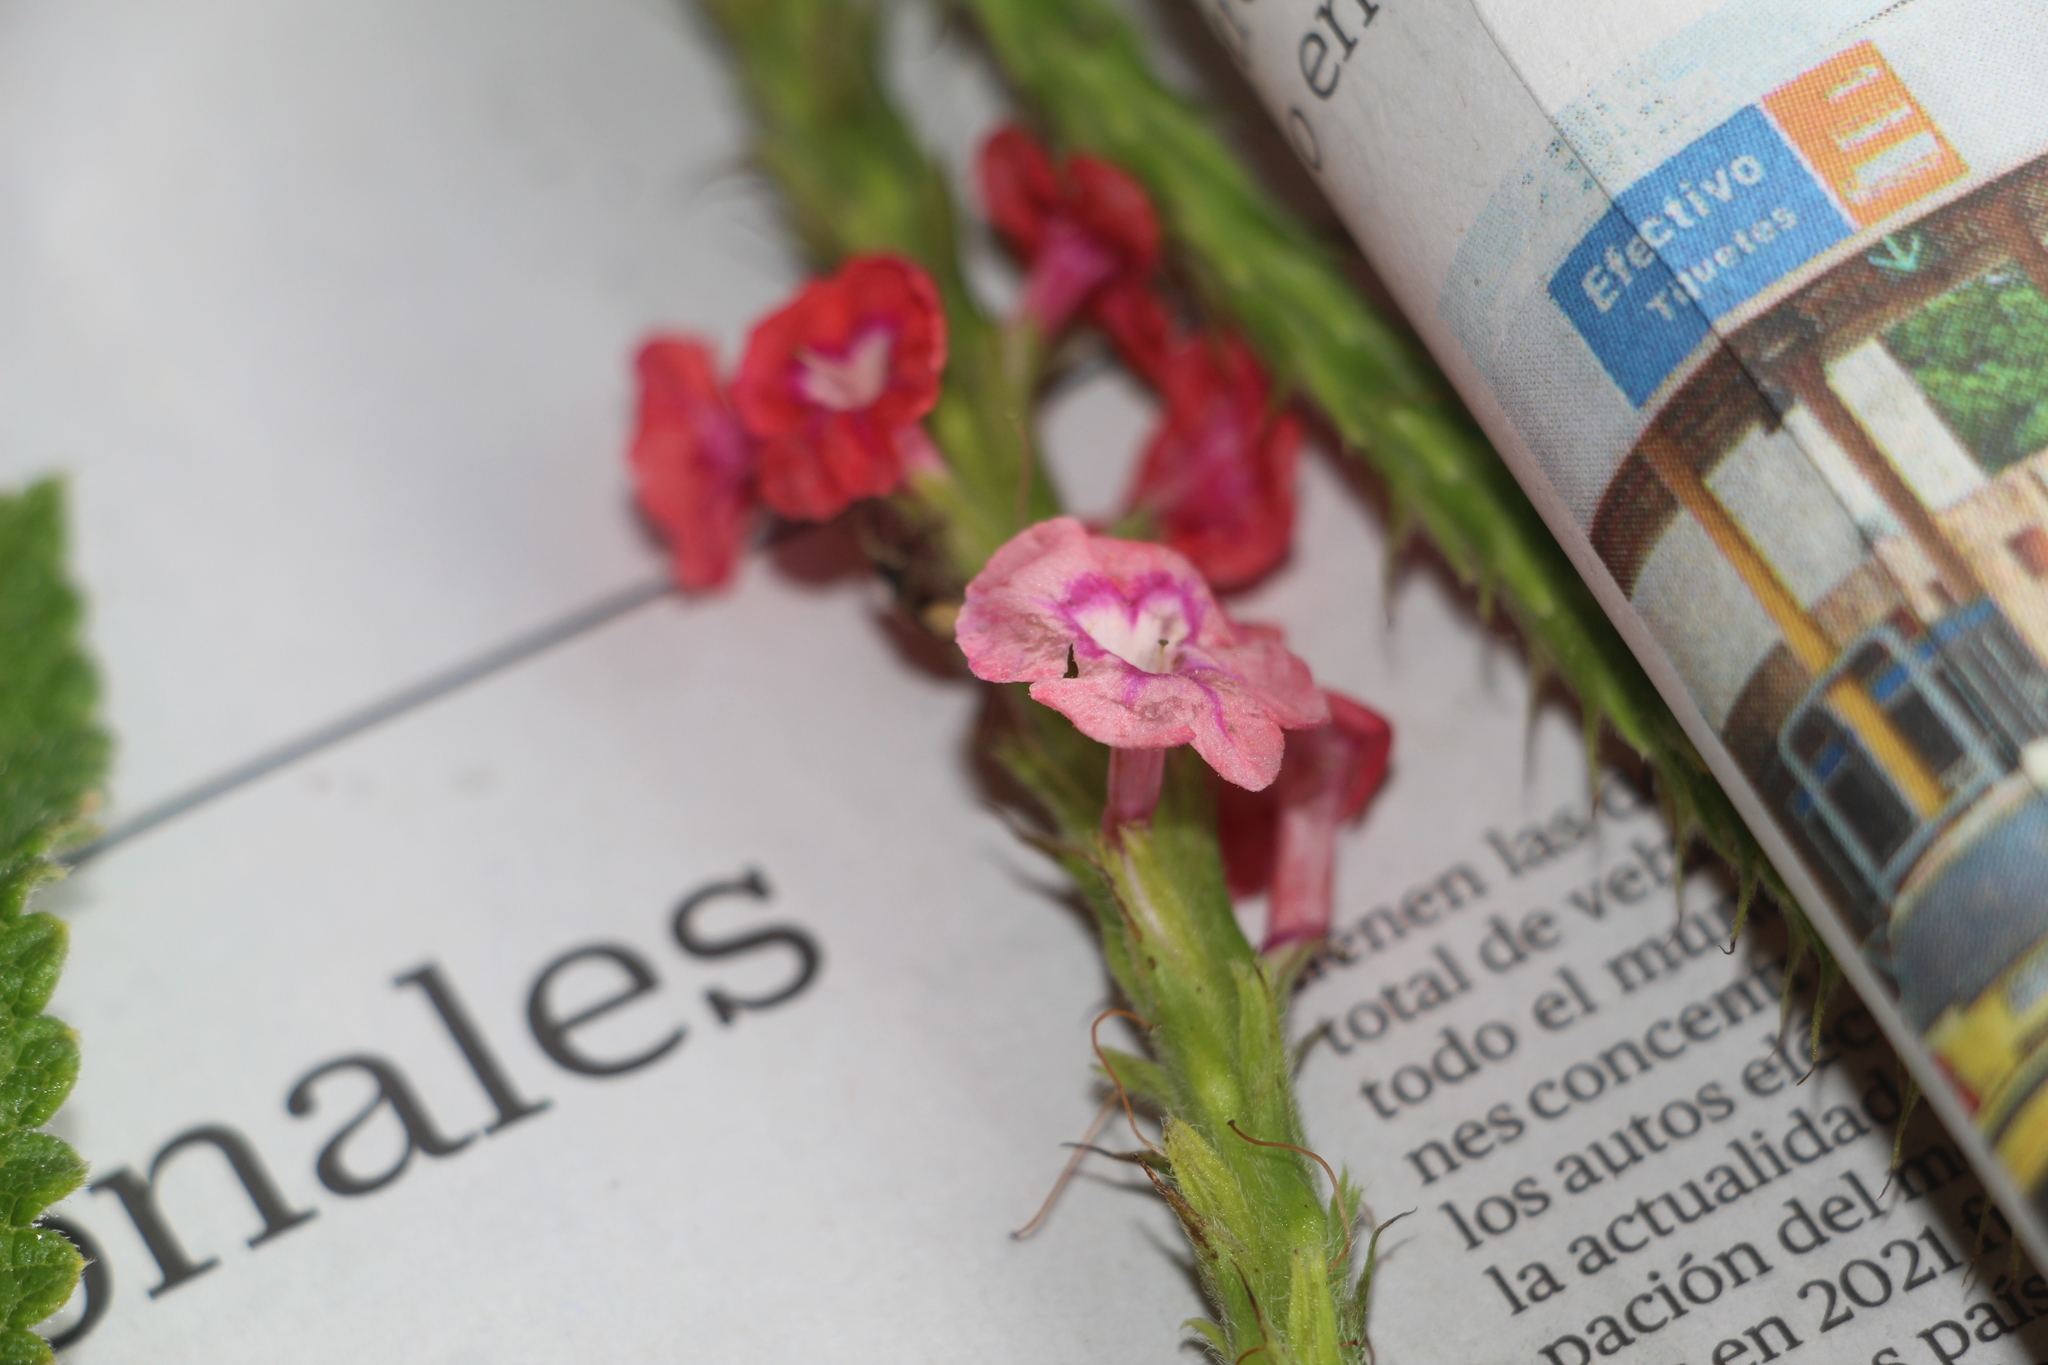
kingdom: Plantae
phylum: Tracheophyta
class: Magnoliopsida
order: Lamiales
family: Verbenaceae
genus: Stachytarpheta
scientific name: Stachytarpheta mutabilis
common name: Changeable velvetberry
